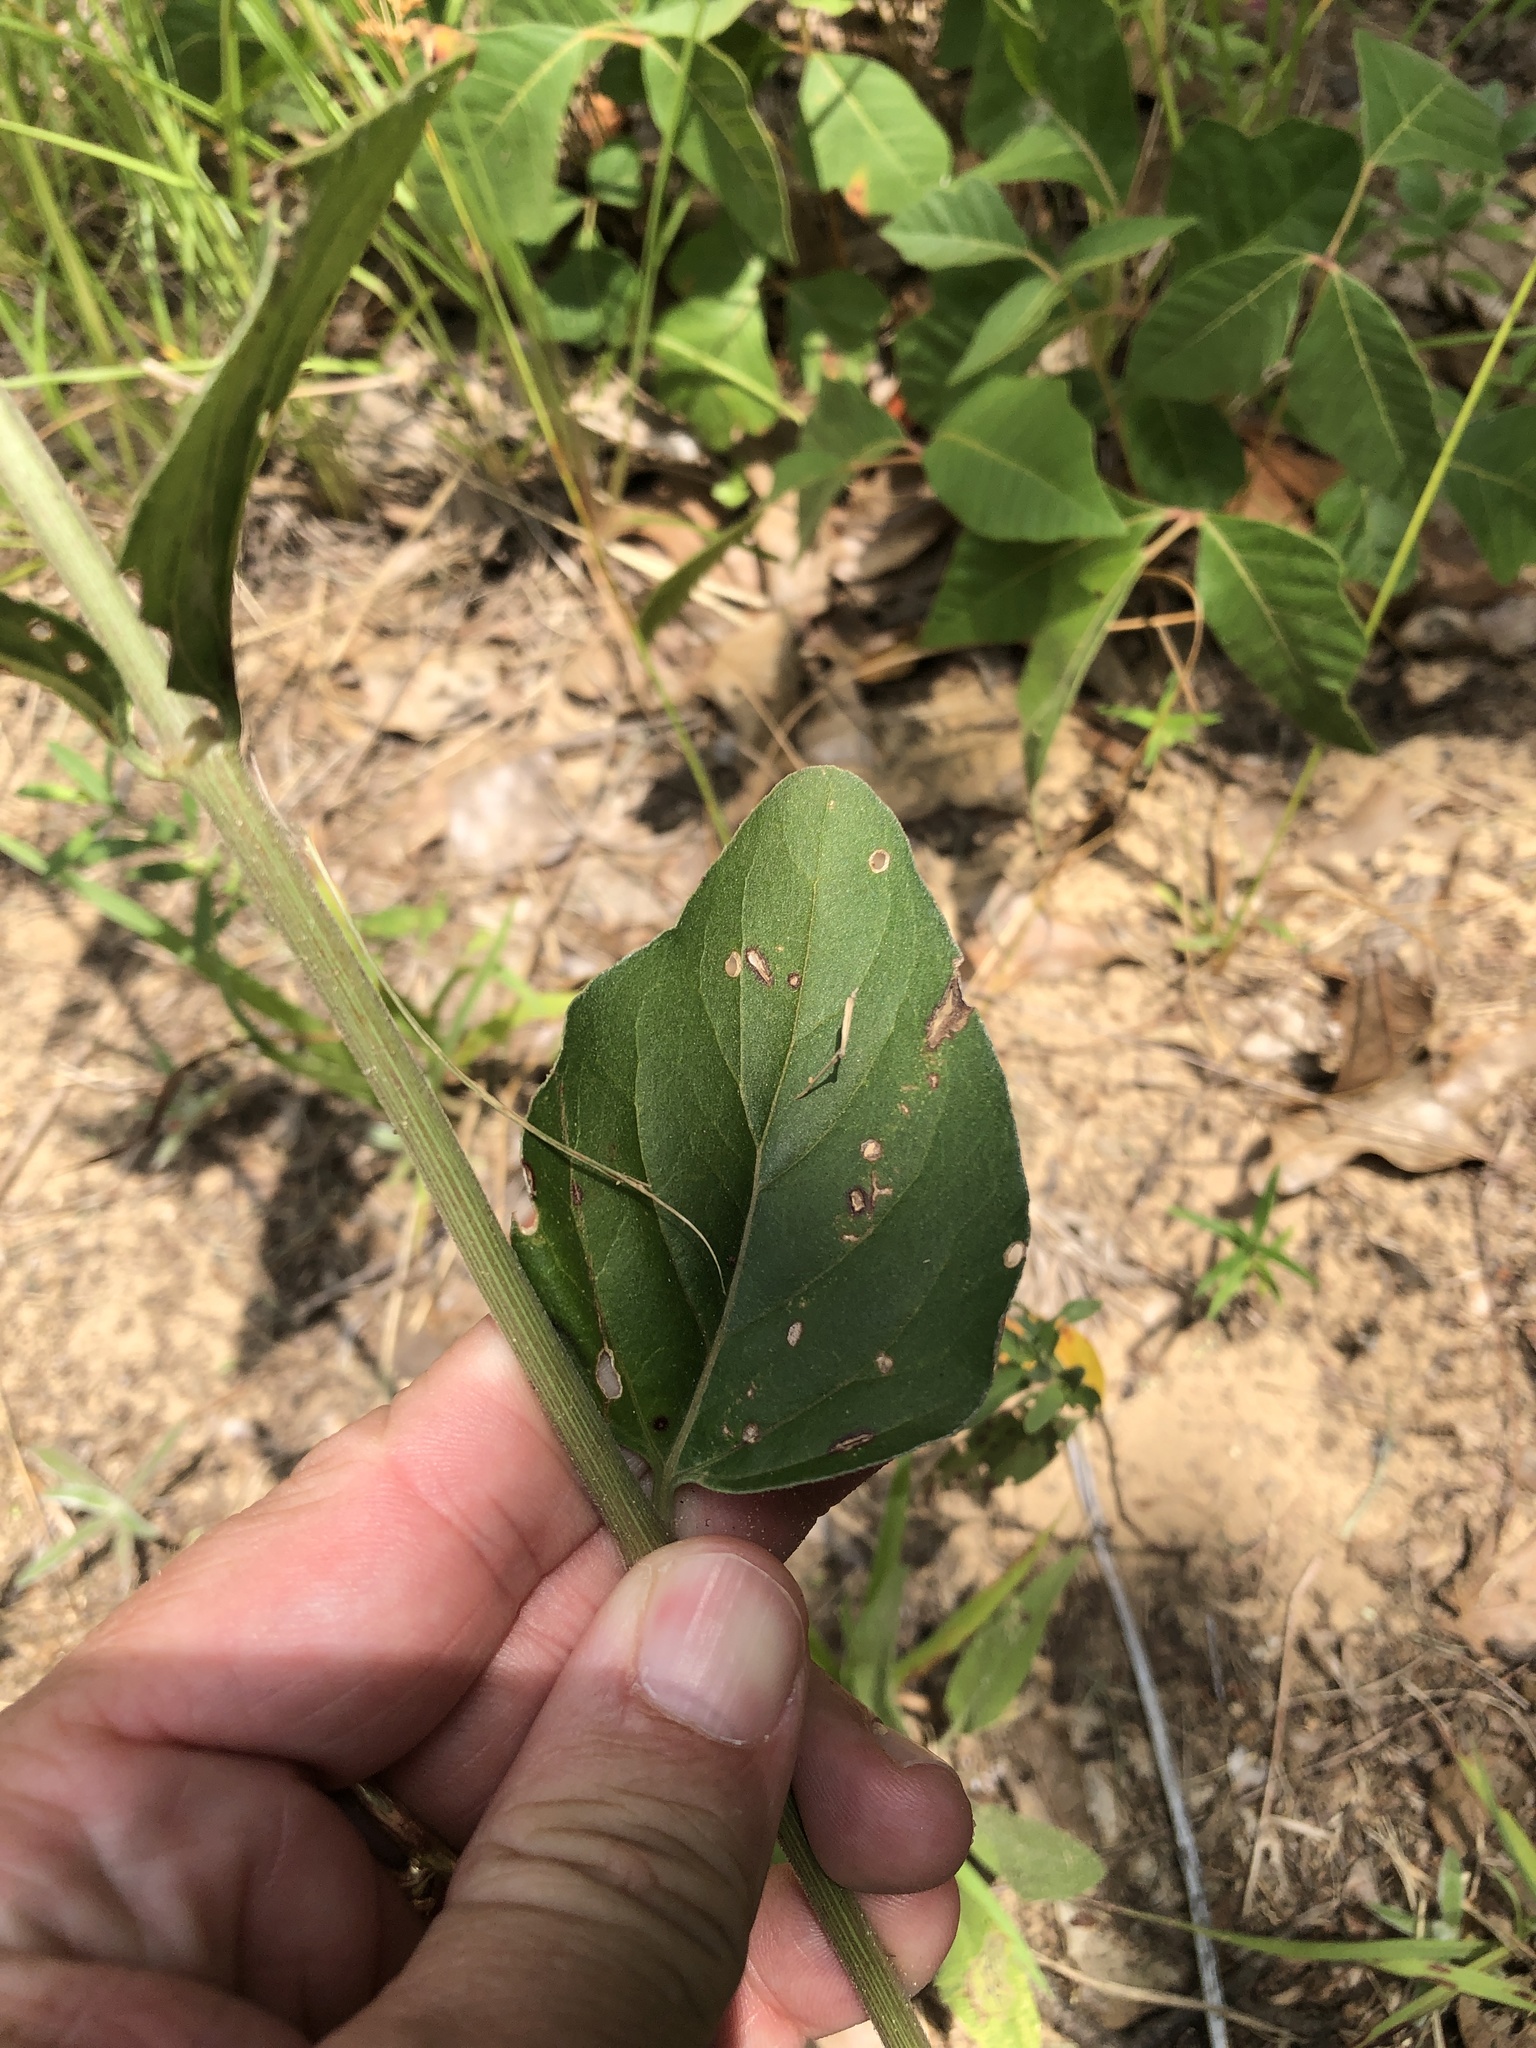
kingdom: Plantae
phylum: Tracheophyta
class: Magnoliopsida
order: Caryophyllales
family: Nyctaginaceae
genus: Mirabilis
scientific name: Mirabilis gigantea
